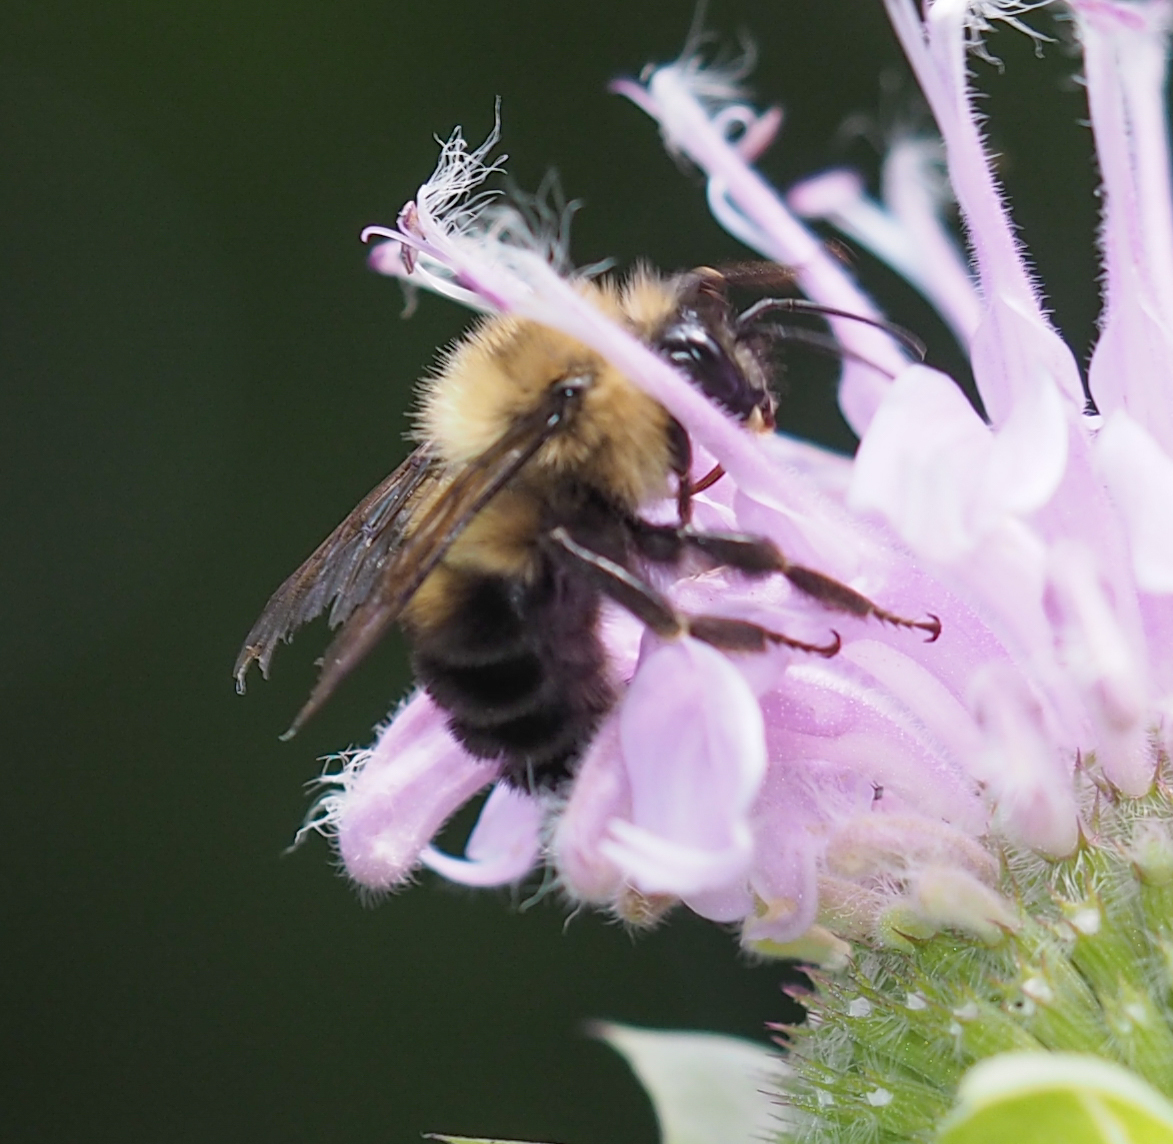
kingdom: Animalia
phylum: Arthropoda
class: Insecta
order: Hymenoptera
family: Apidae
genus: Bombus
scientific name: Bombus bimaculatus
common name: Two-spotted bumble bee
